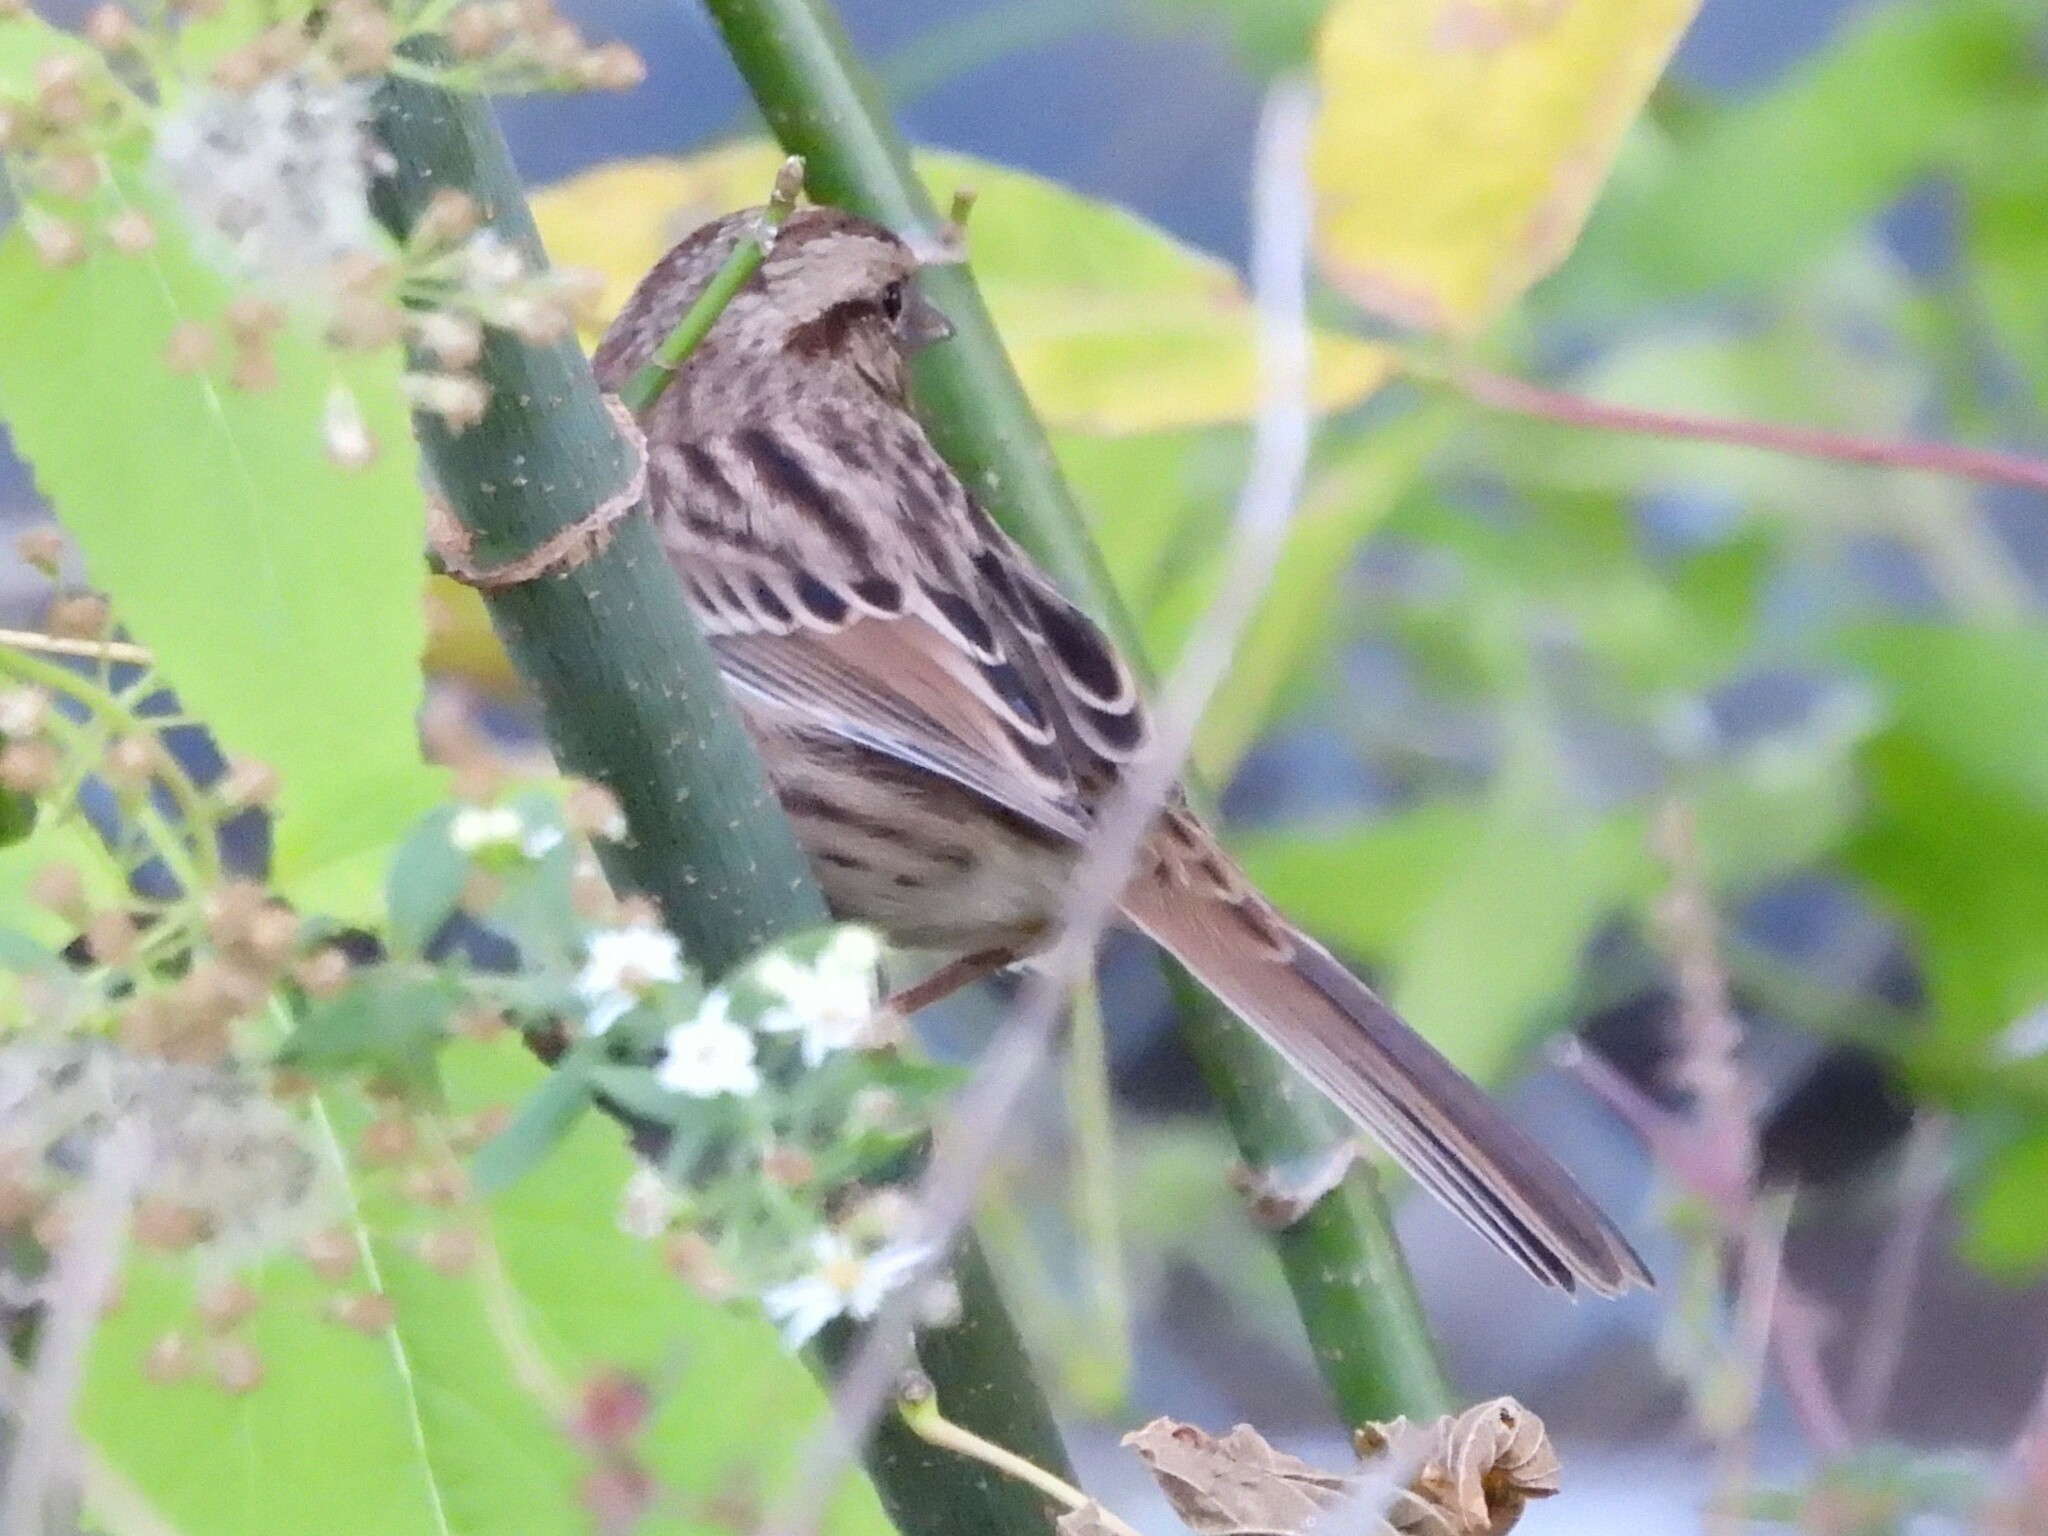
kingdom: Animalia
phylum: Chordata
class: Aves
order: Passeriformes
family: Passerellidae
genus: Melospiza
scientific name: Melospiza melodia
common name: Song sparrow
